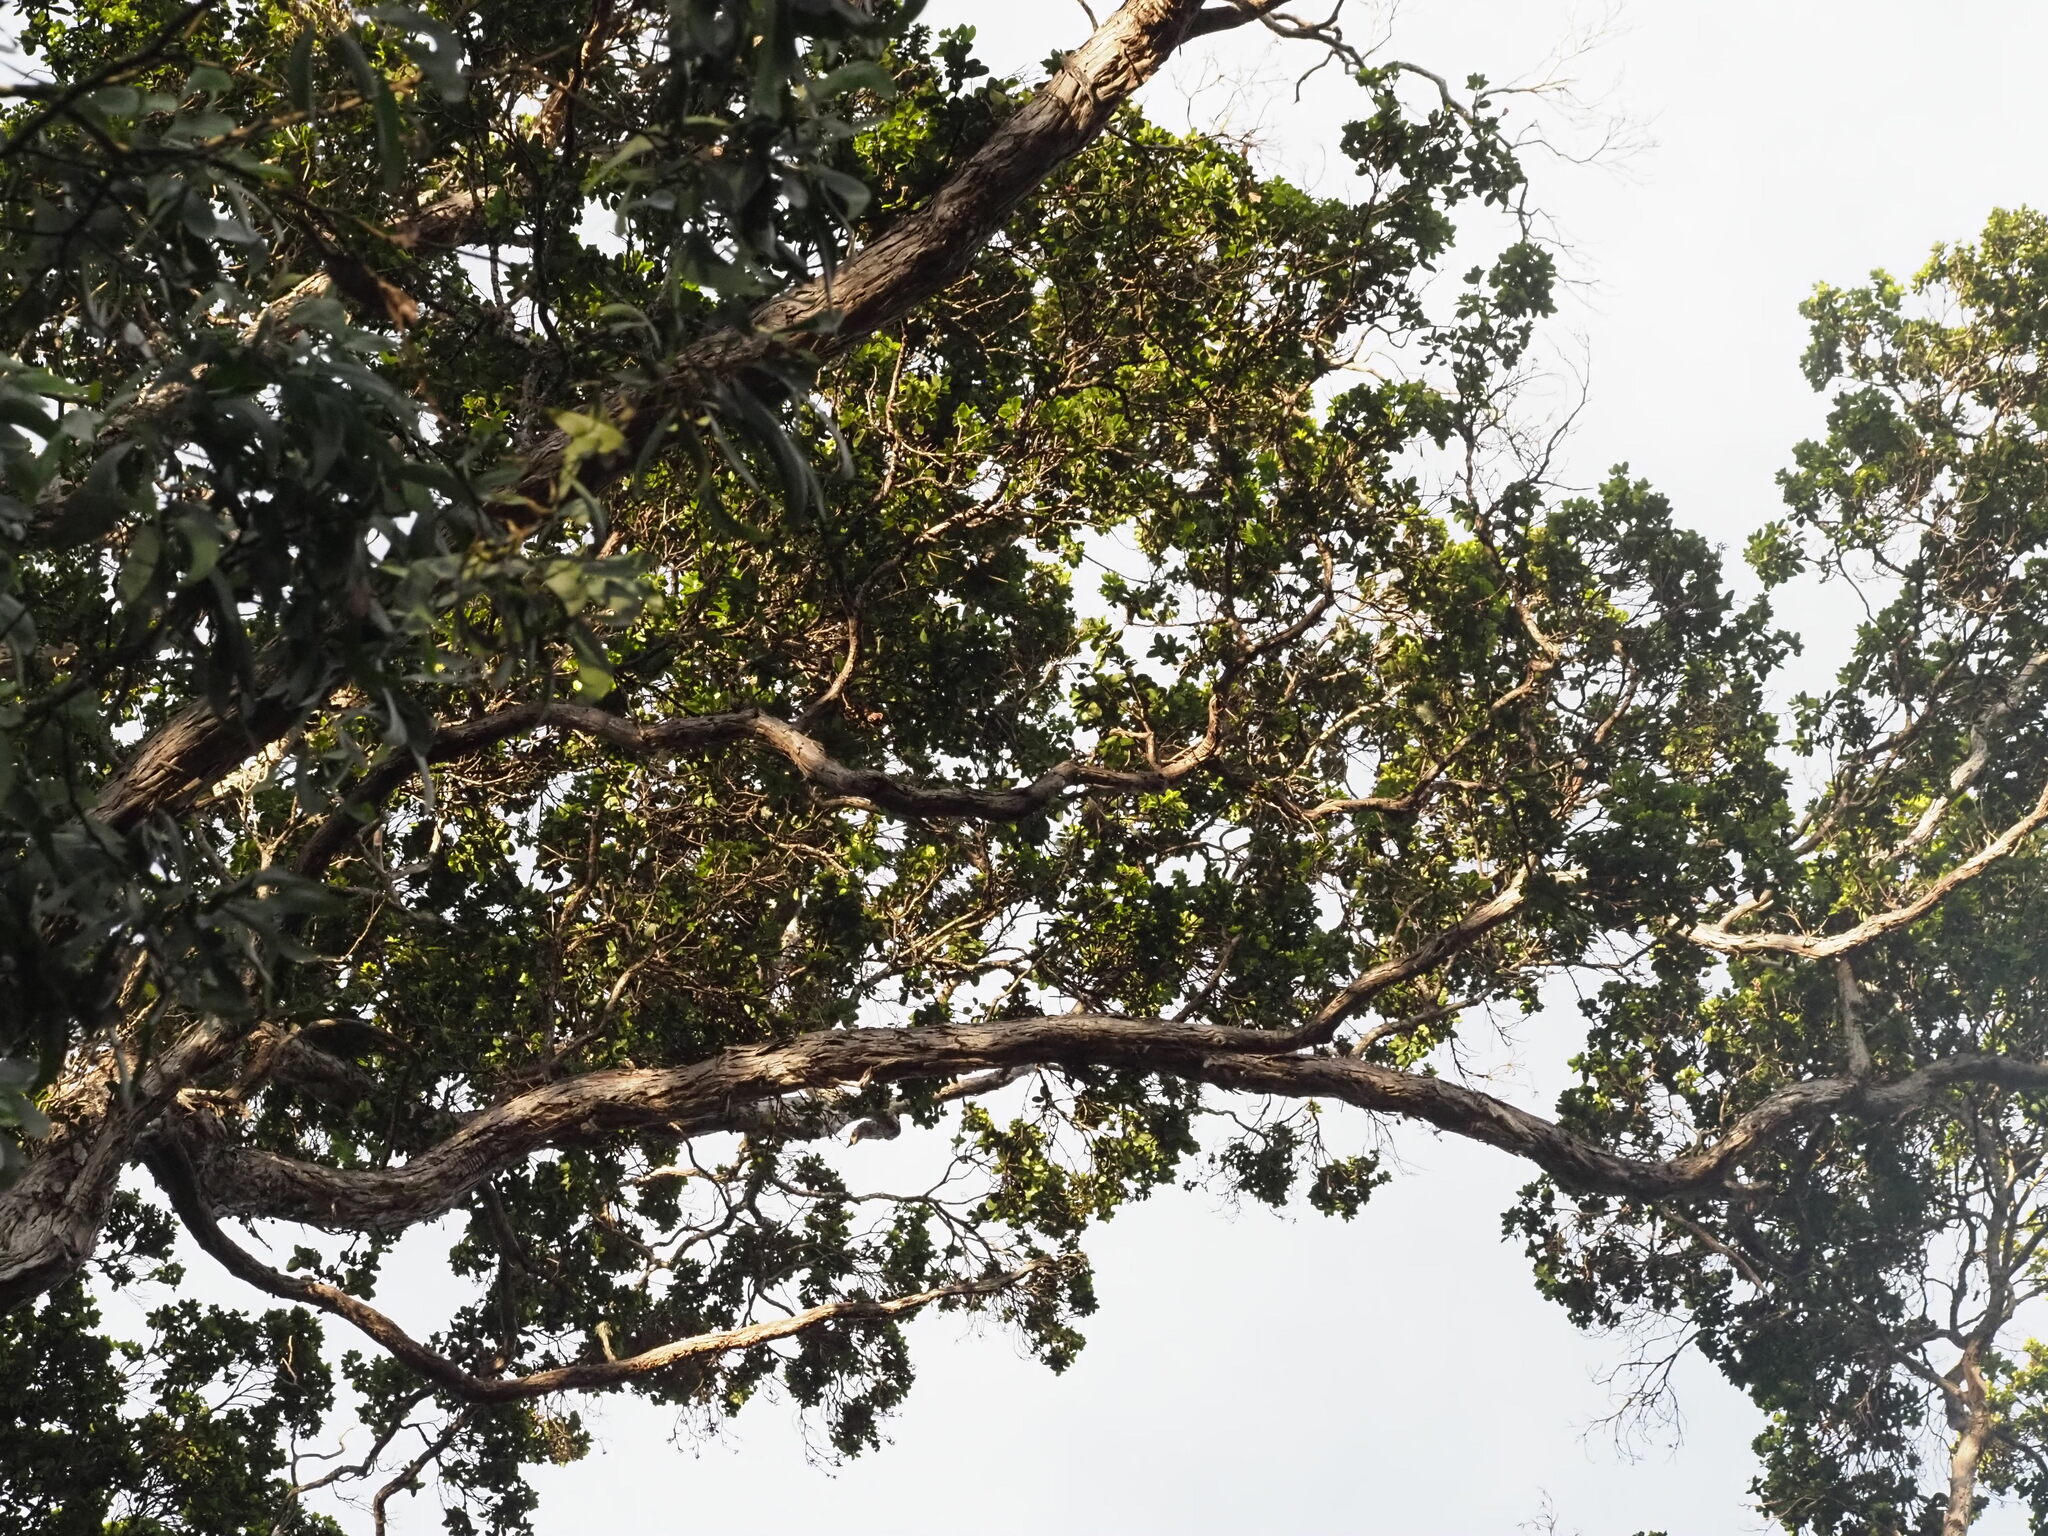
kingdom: Plantae
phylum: Tracheophyta
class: Magnoliopsida
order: Myrtales
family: Myrtaceae
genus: Metrosideros
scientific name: Metrosideros polymorpha
